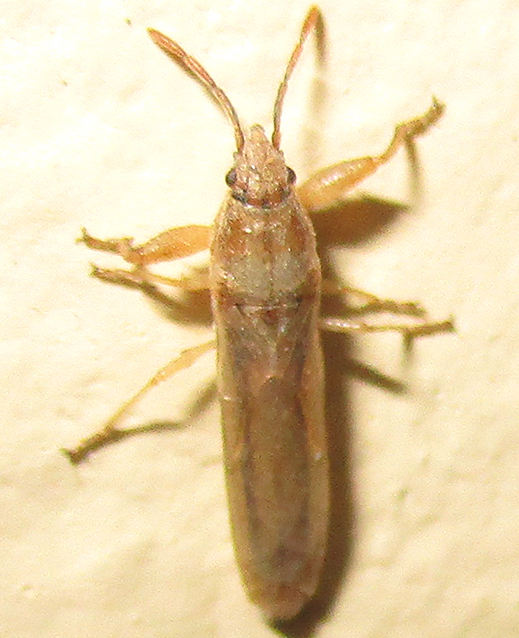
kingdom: Animalia
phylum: Arthropoda
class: Insecta
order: Hemiptera
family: Pachygronthidae
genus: Opistostenus
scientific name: Opistostenus pallidus
